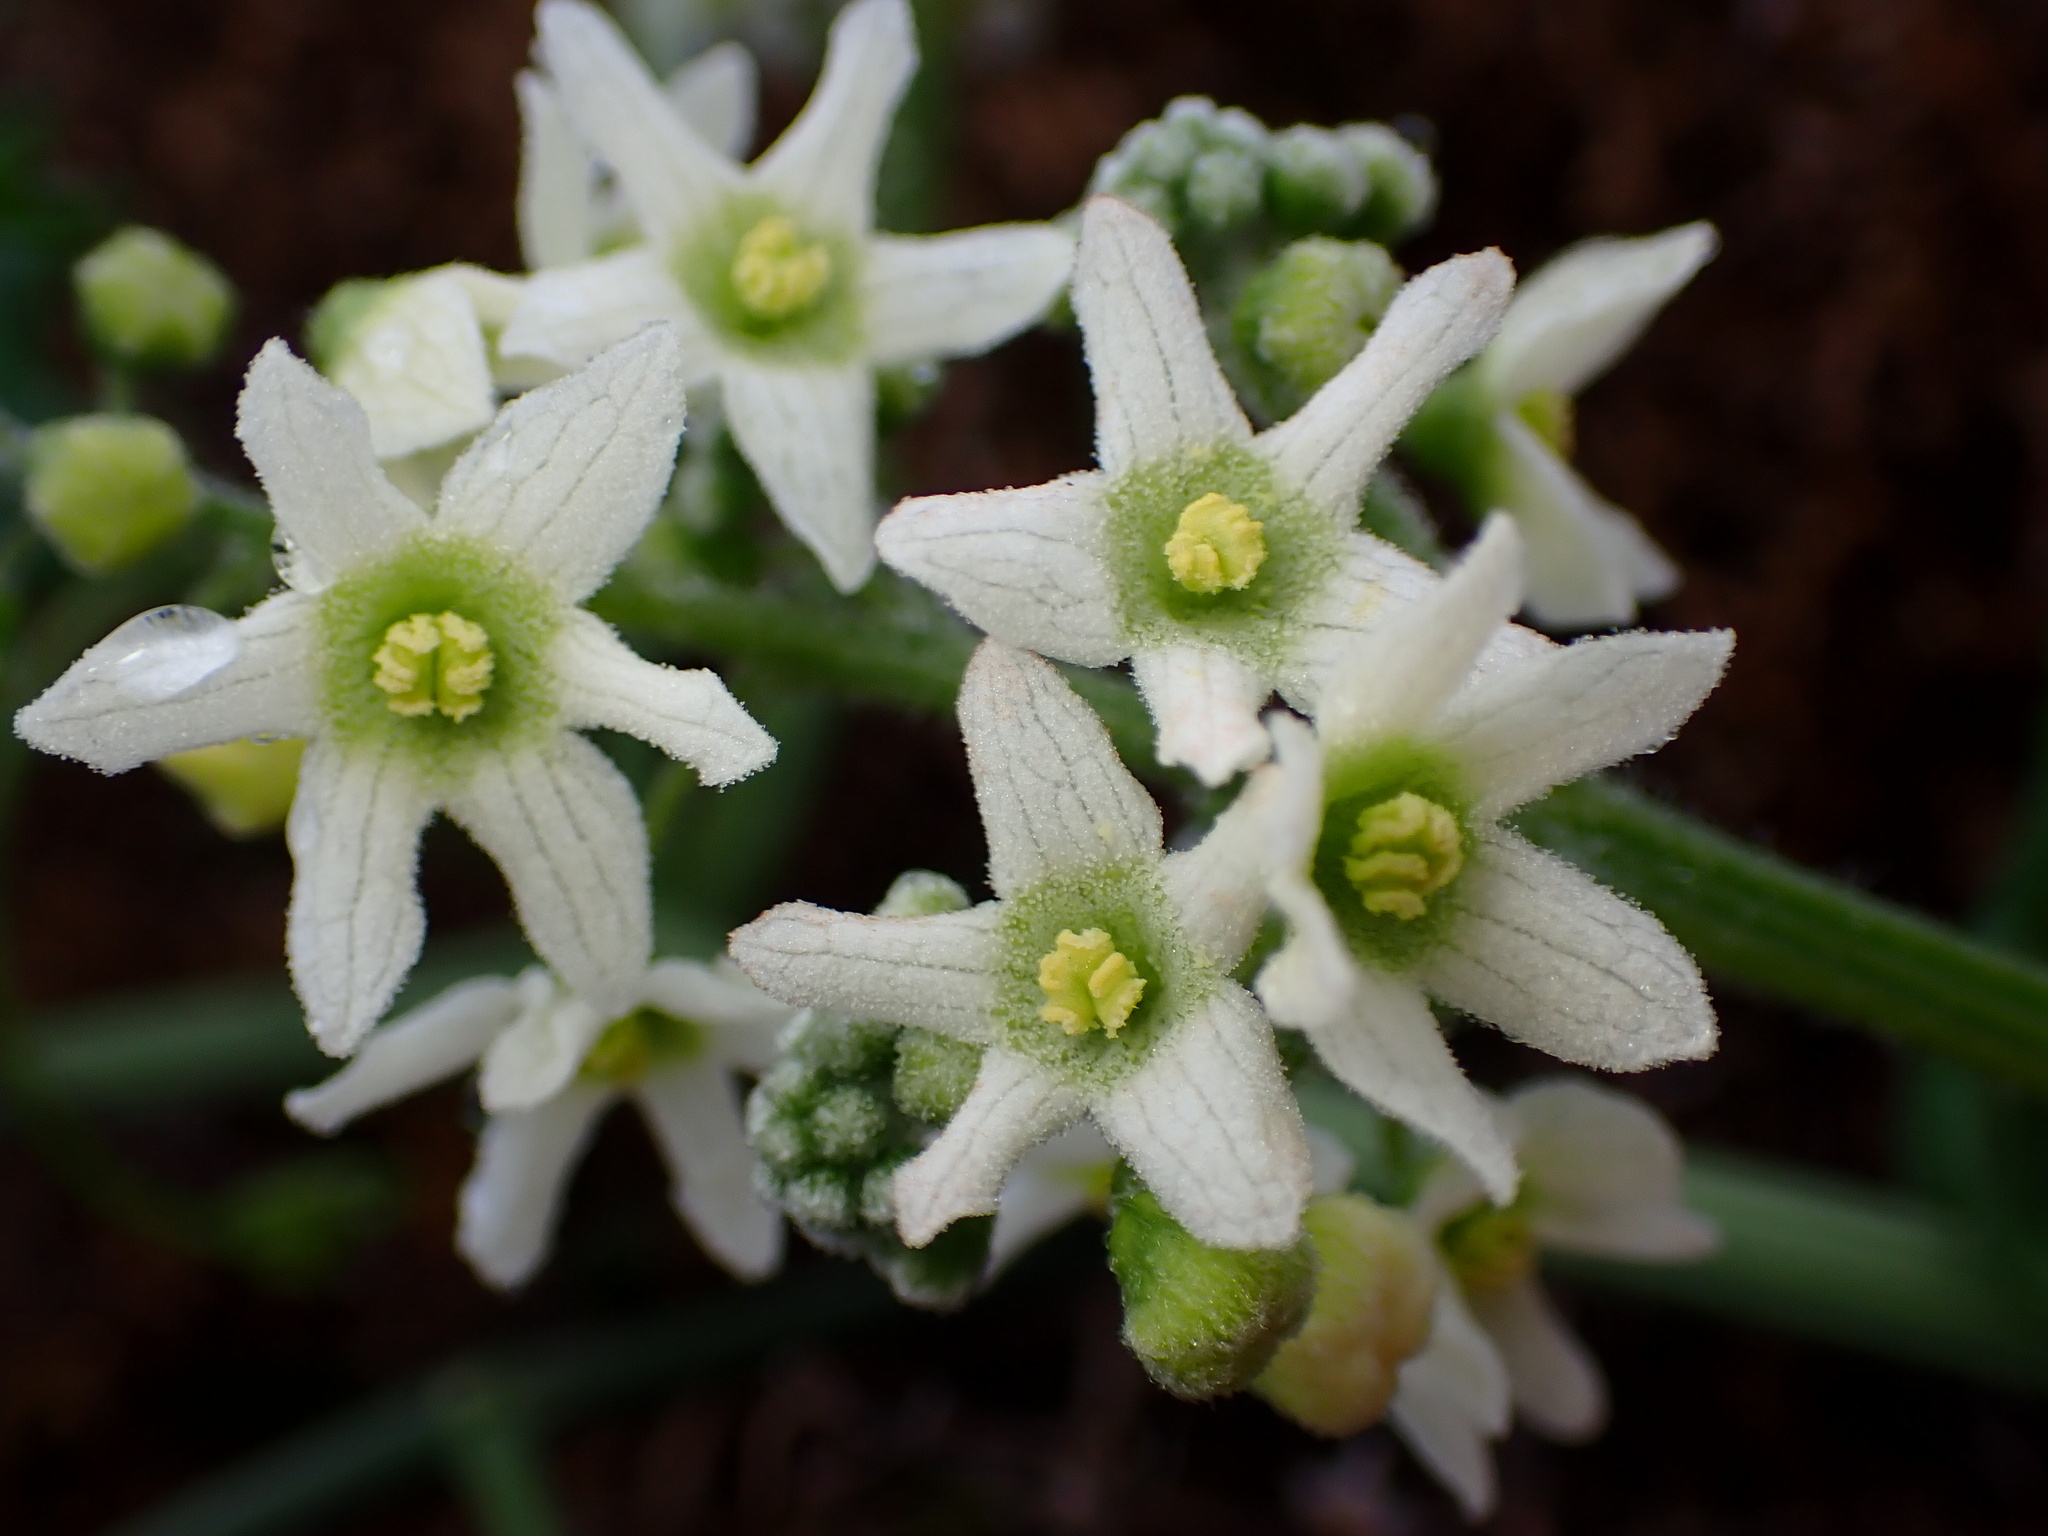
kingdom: Plantae
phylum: Tracheophyta
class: Magnoliopsida
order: Cucurbitales
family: Cucurbitaceae
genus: Marah
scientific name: Marah macrocarpa
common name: Cucamonga manroot
